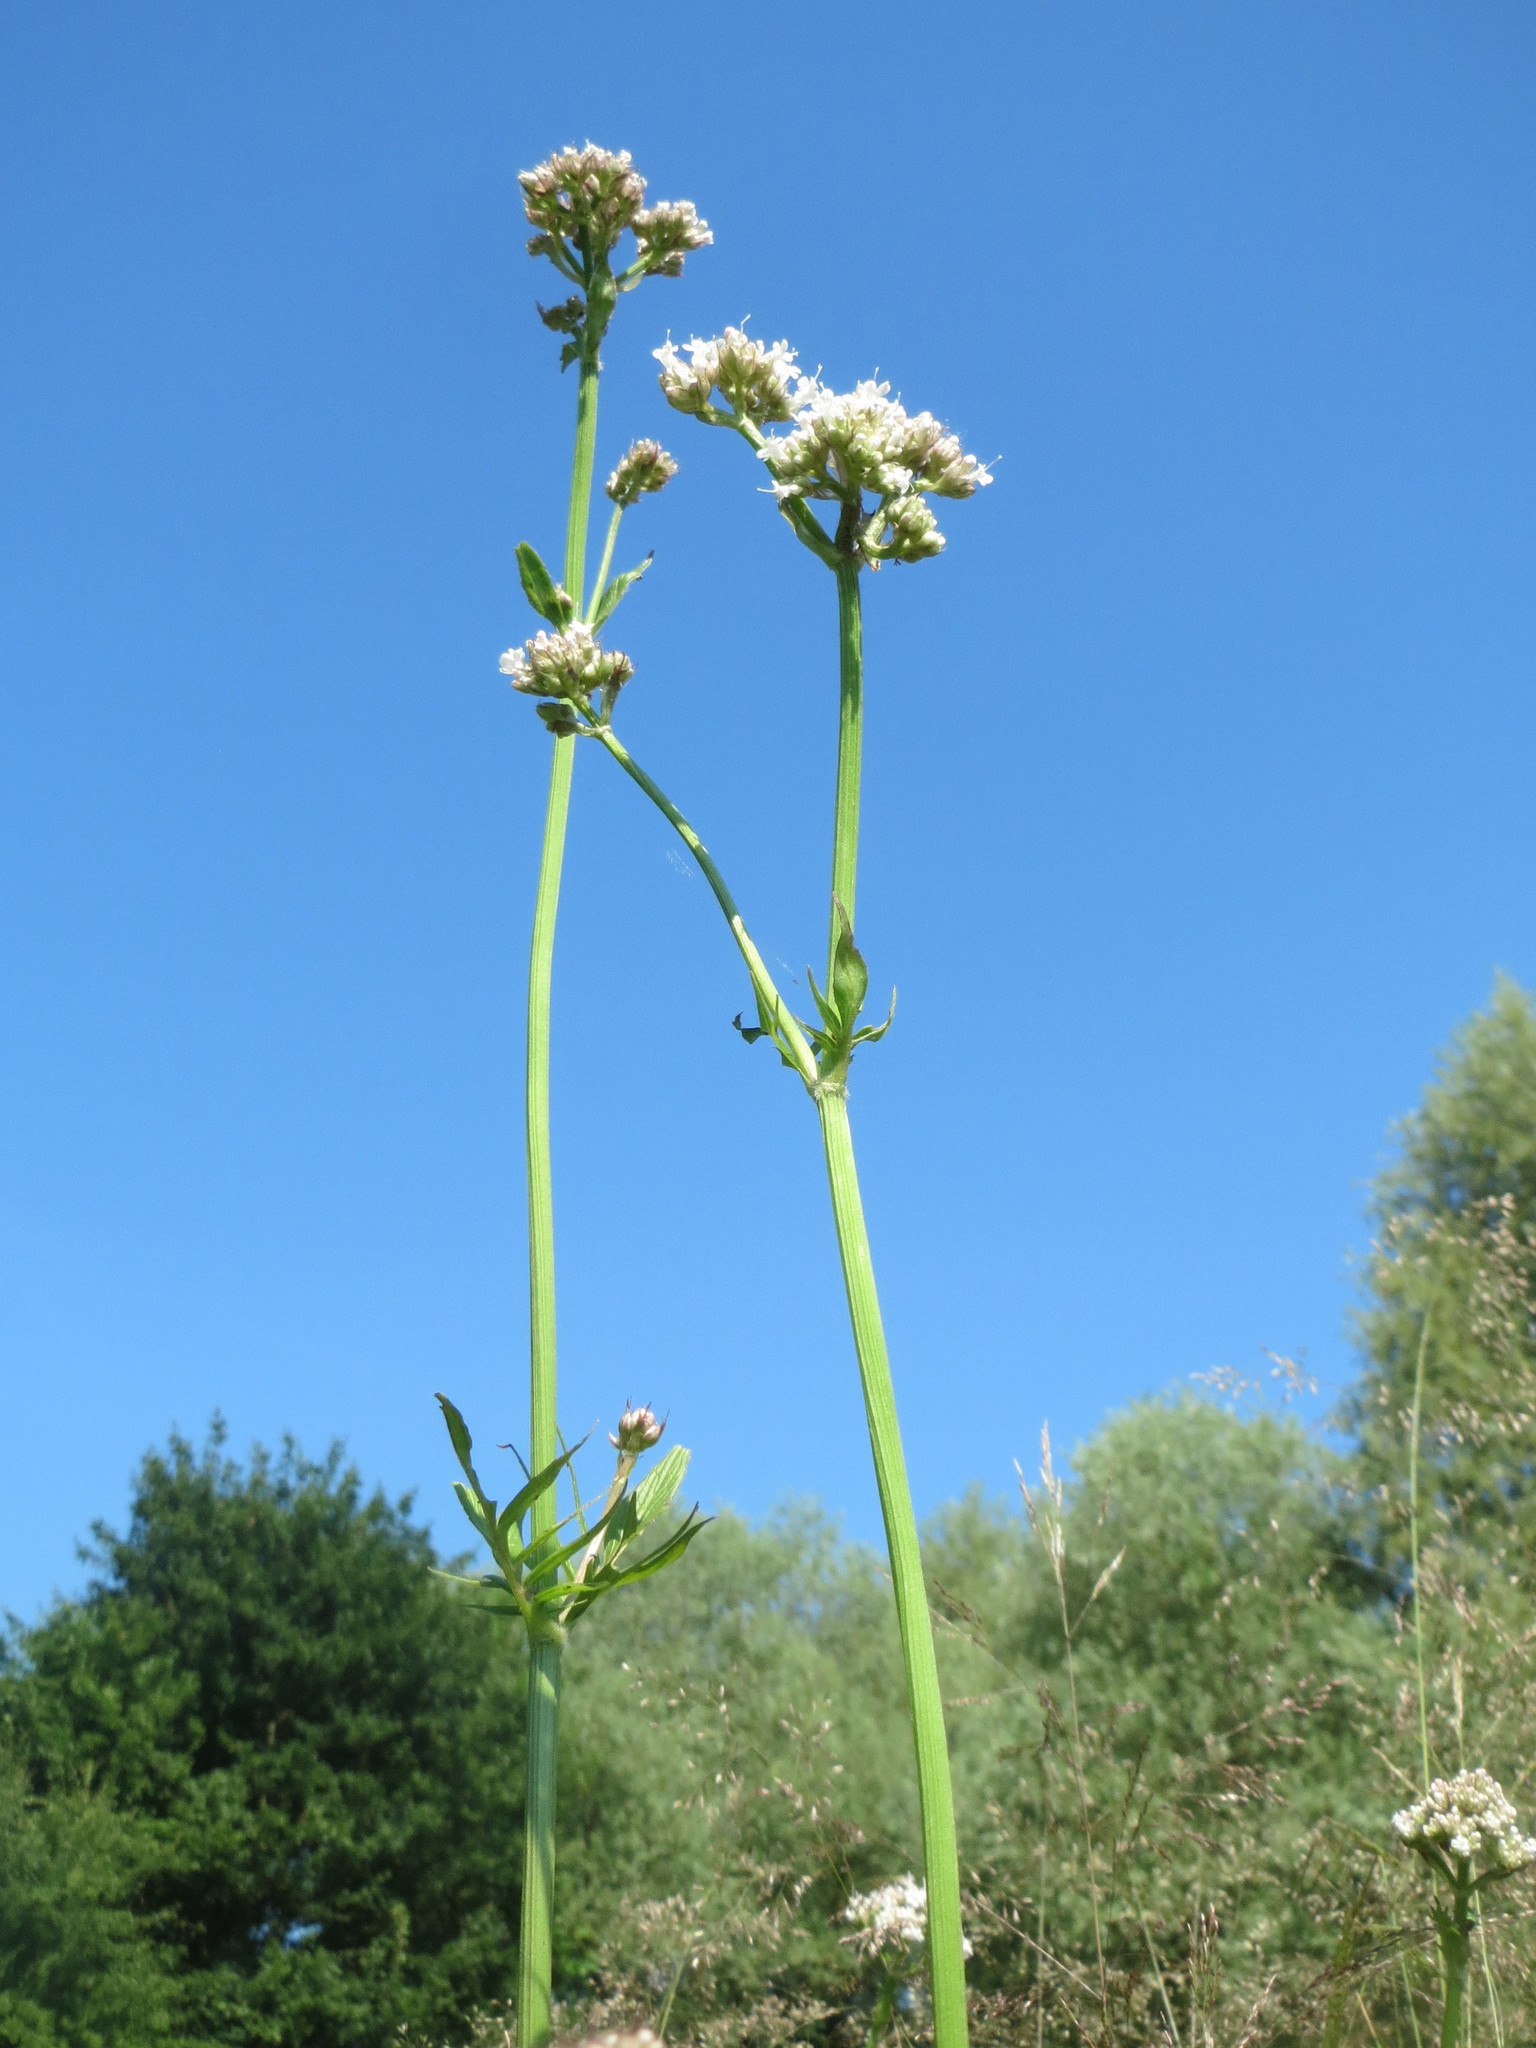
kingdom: Plantae
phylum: Tracheophyta
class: Magnoliopsida
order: Dipsacales
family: Caprifoliaceae
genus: Valeriana
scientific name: Valeriana officinalis
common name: Common valerian
